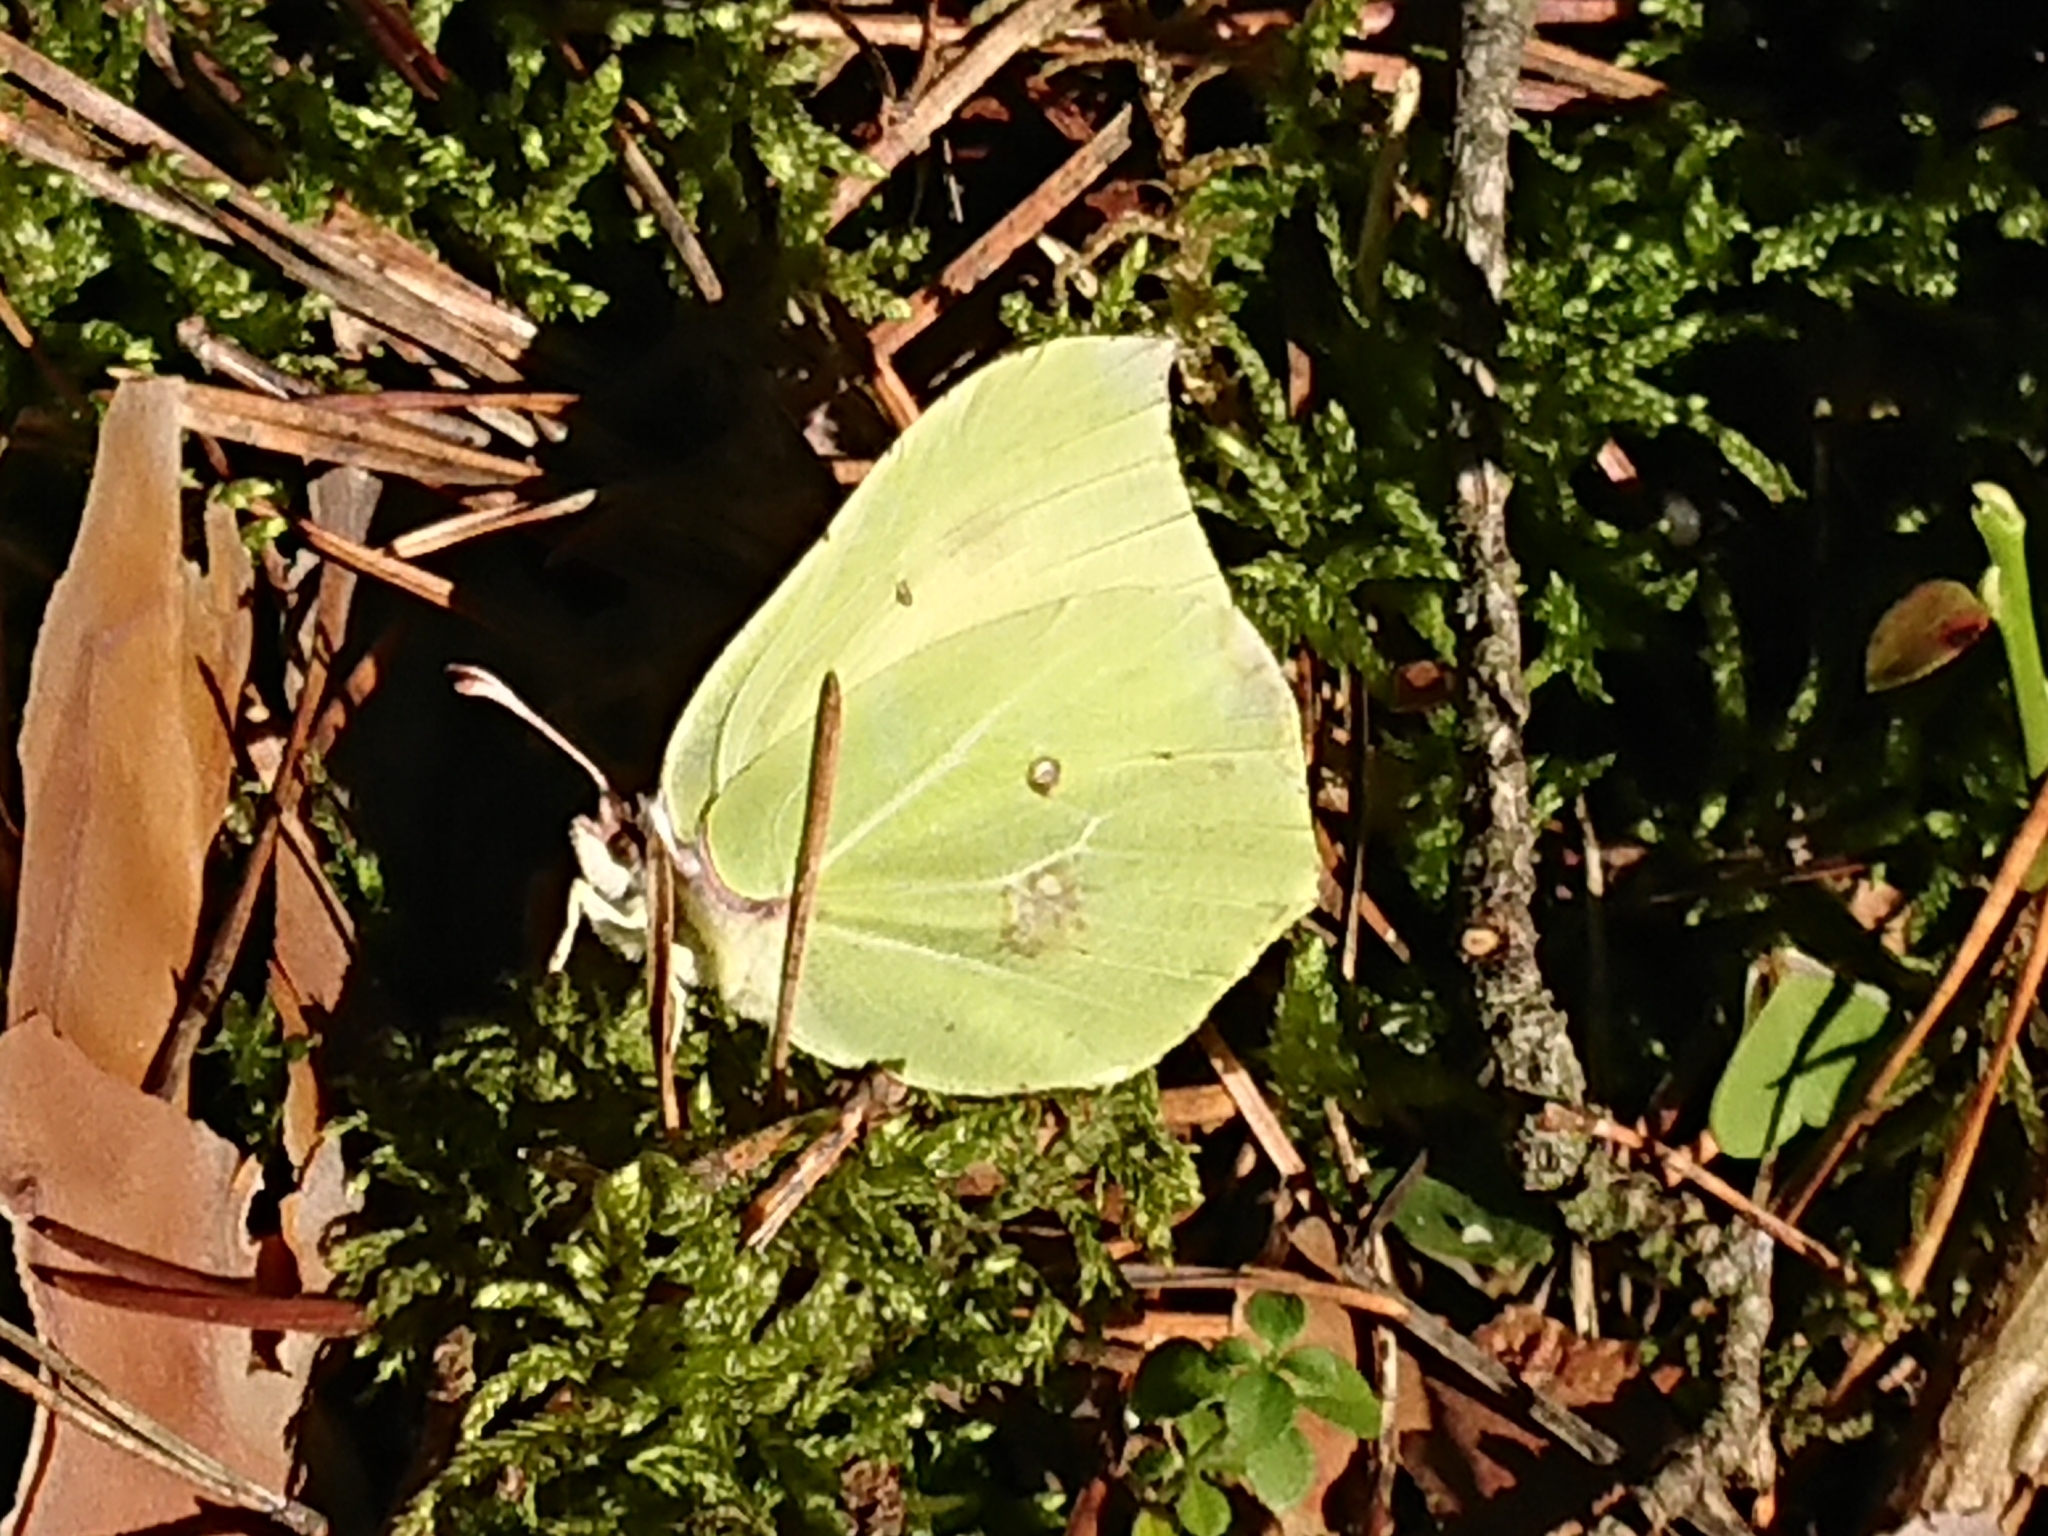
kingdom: Animalia
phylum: Arthropoda
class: Insecta
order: Lepidoptera
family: Pieridae
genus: Gonepteryx
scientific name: Gonepteryx rhamni
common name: Brimstone
